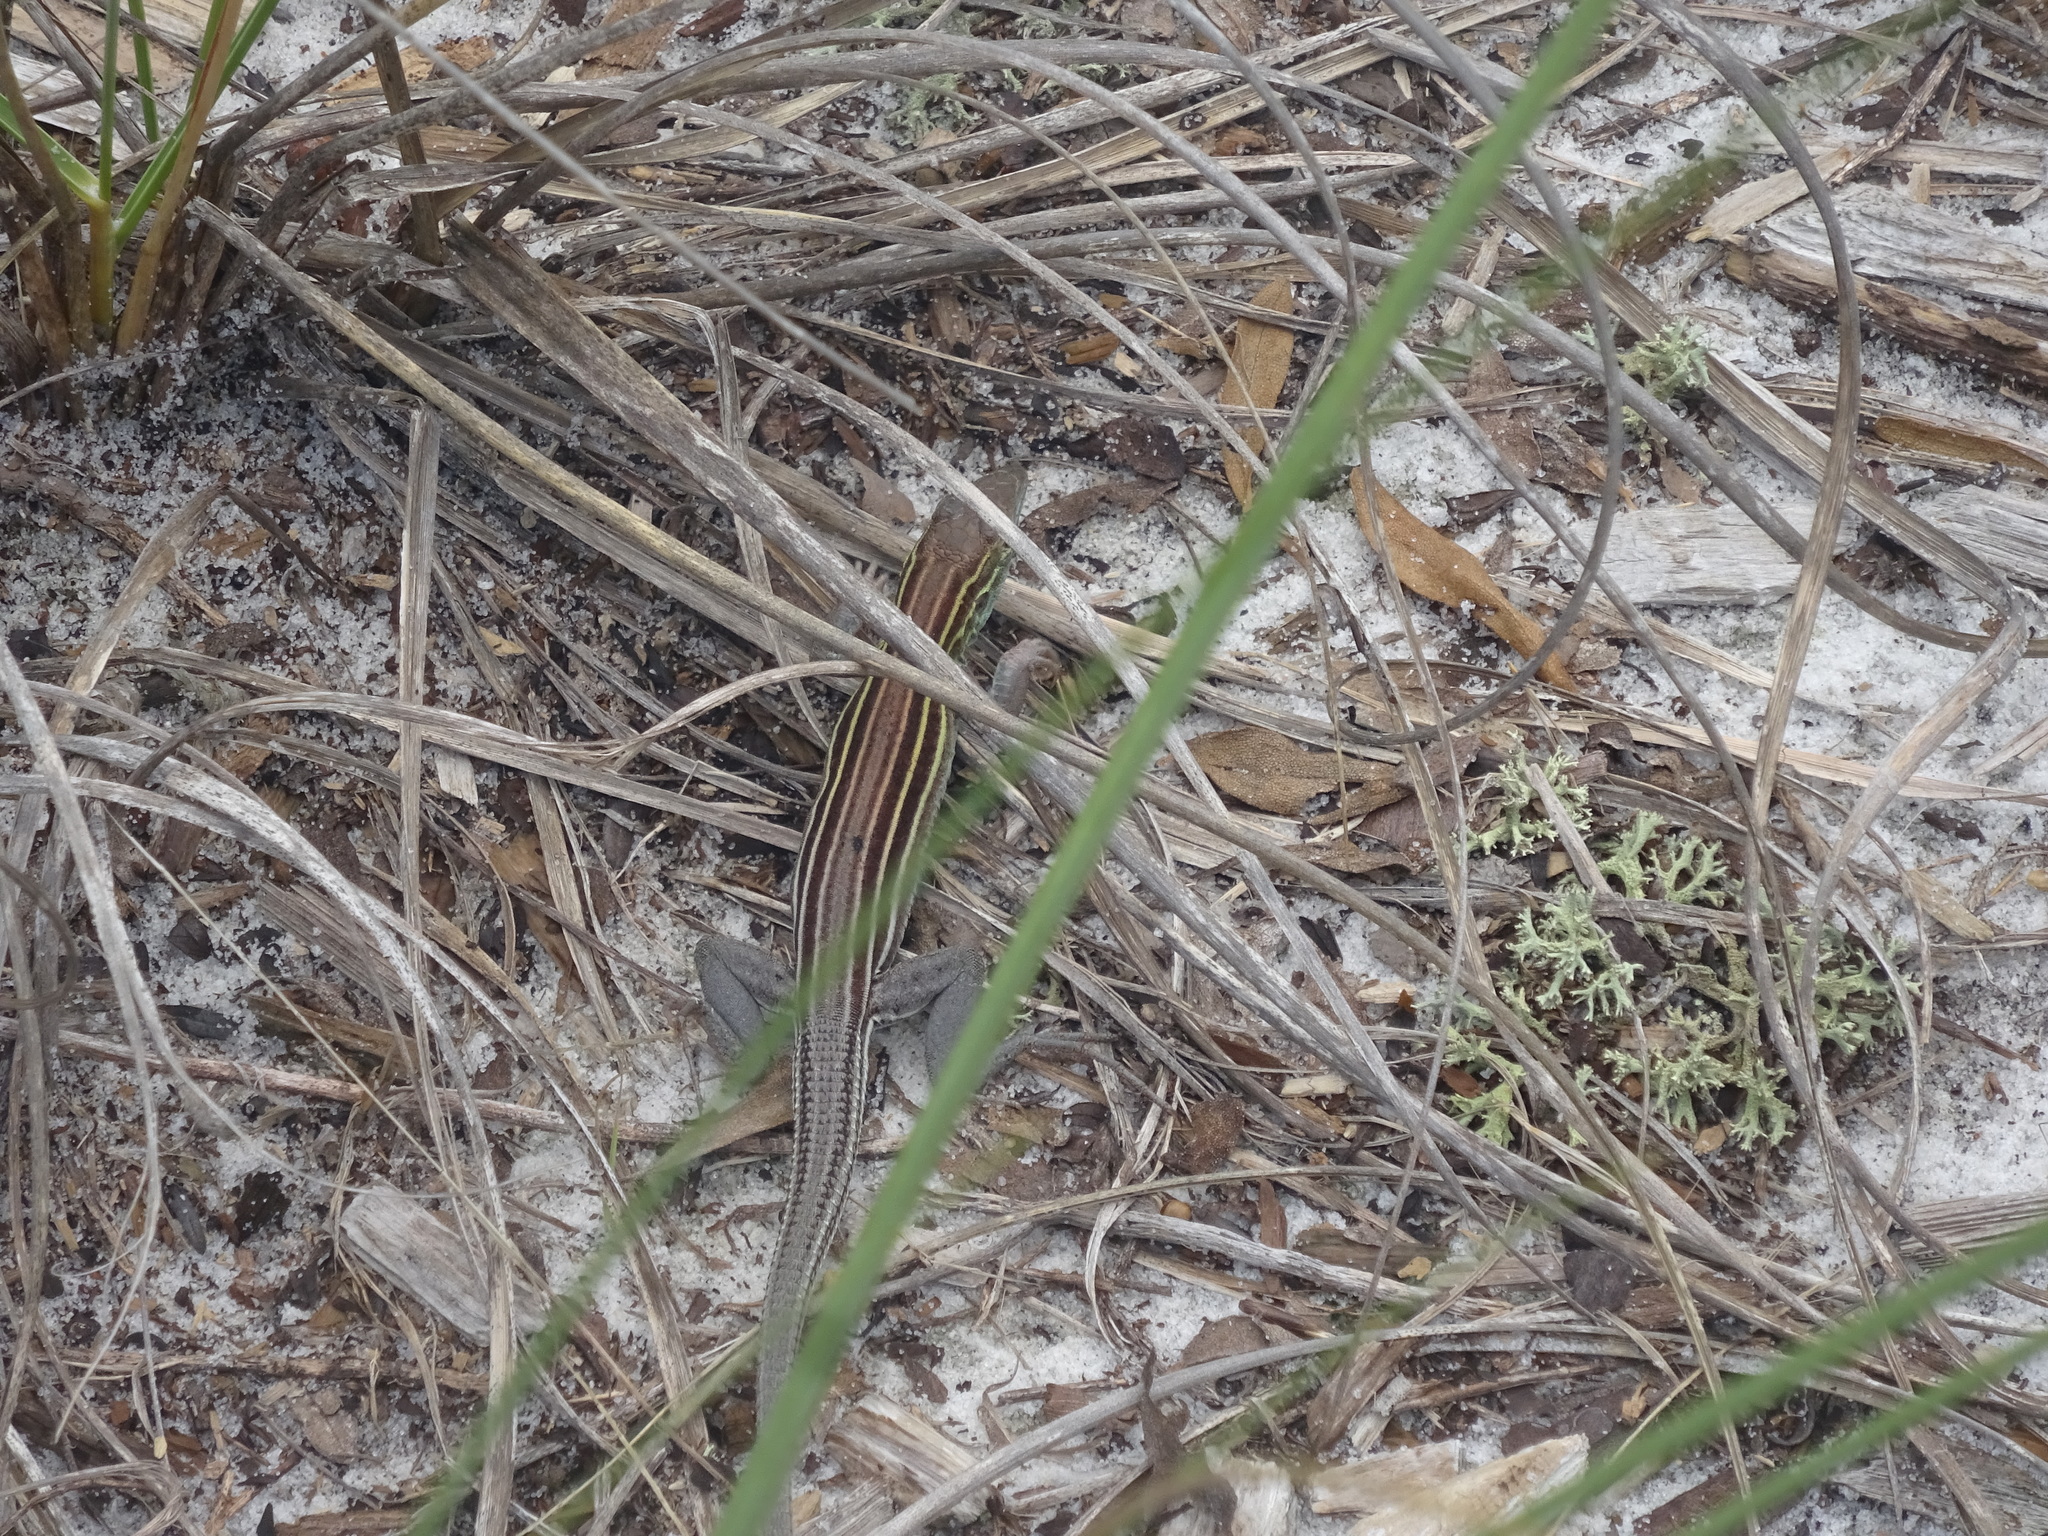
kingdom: Animalia
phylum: Chordata
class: Squamata
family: Teiidae
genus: Aspidoscelis
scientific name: Aspidoscelis sexlineatus
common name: Six-lined racerunner
